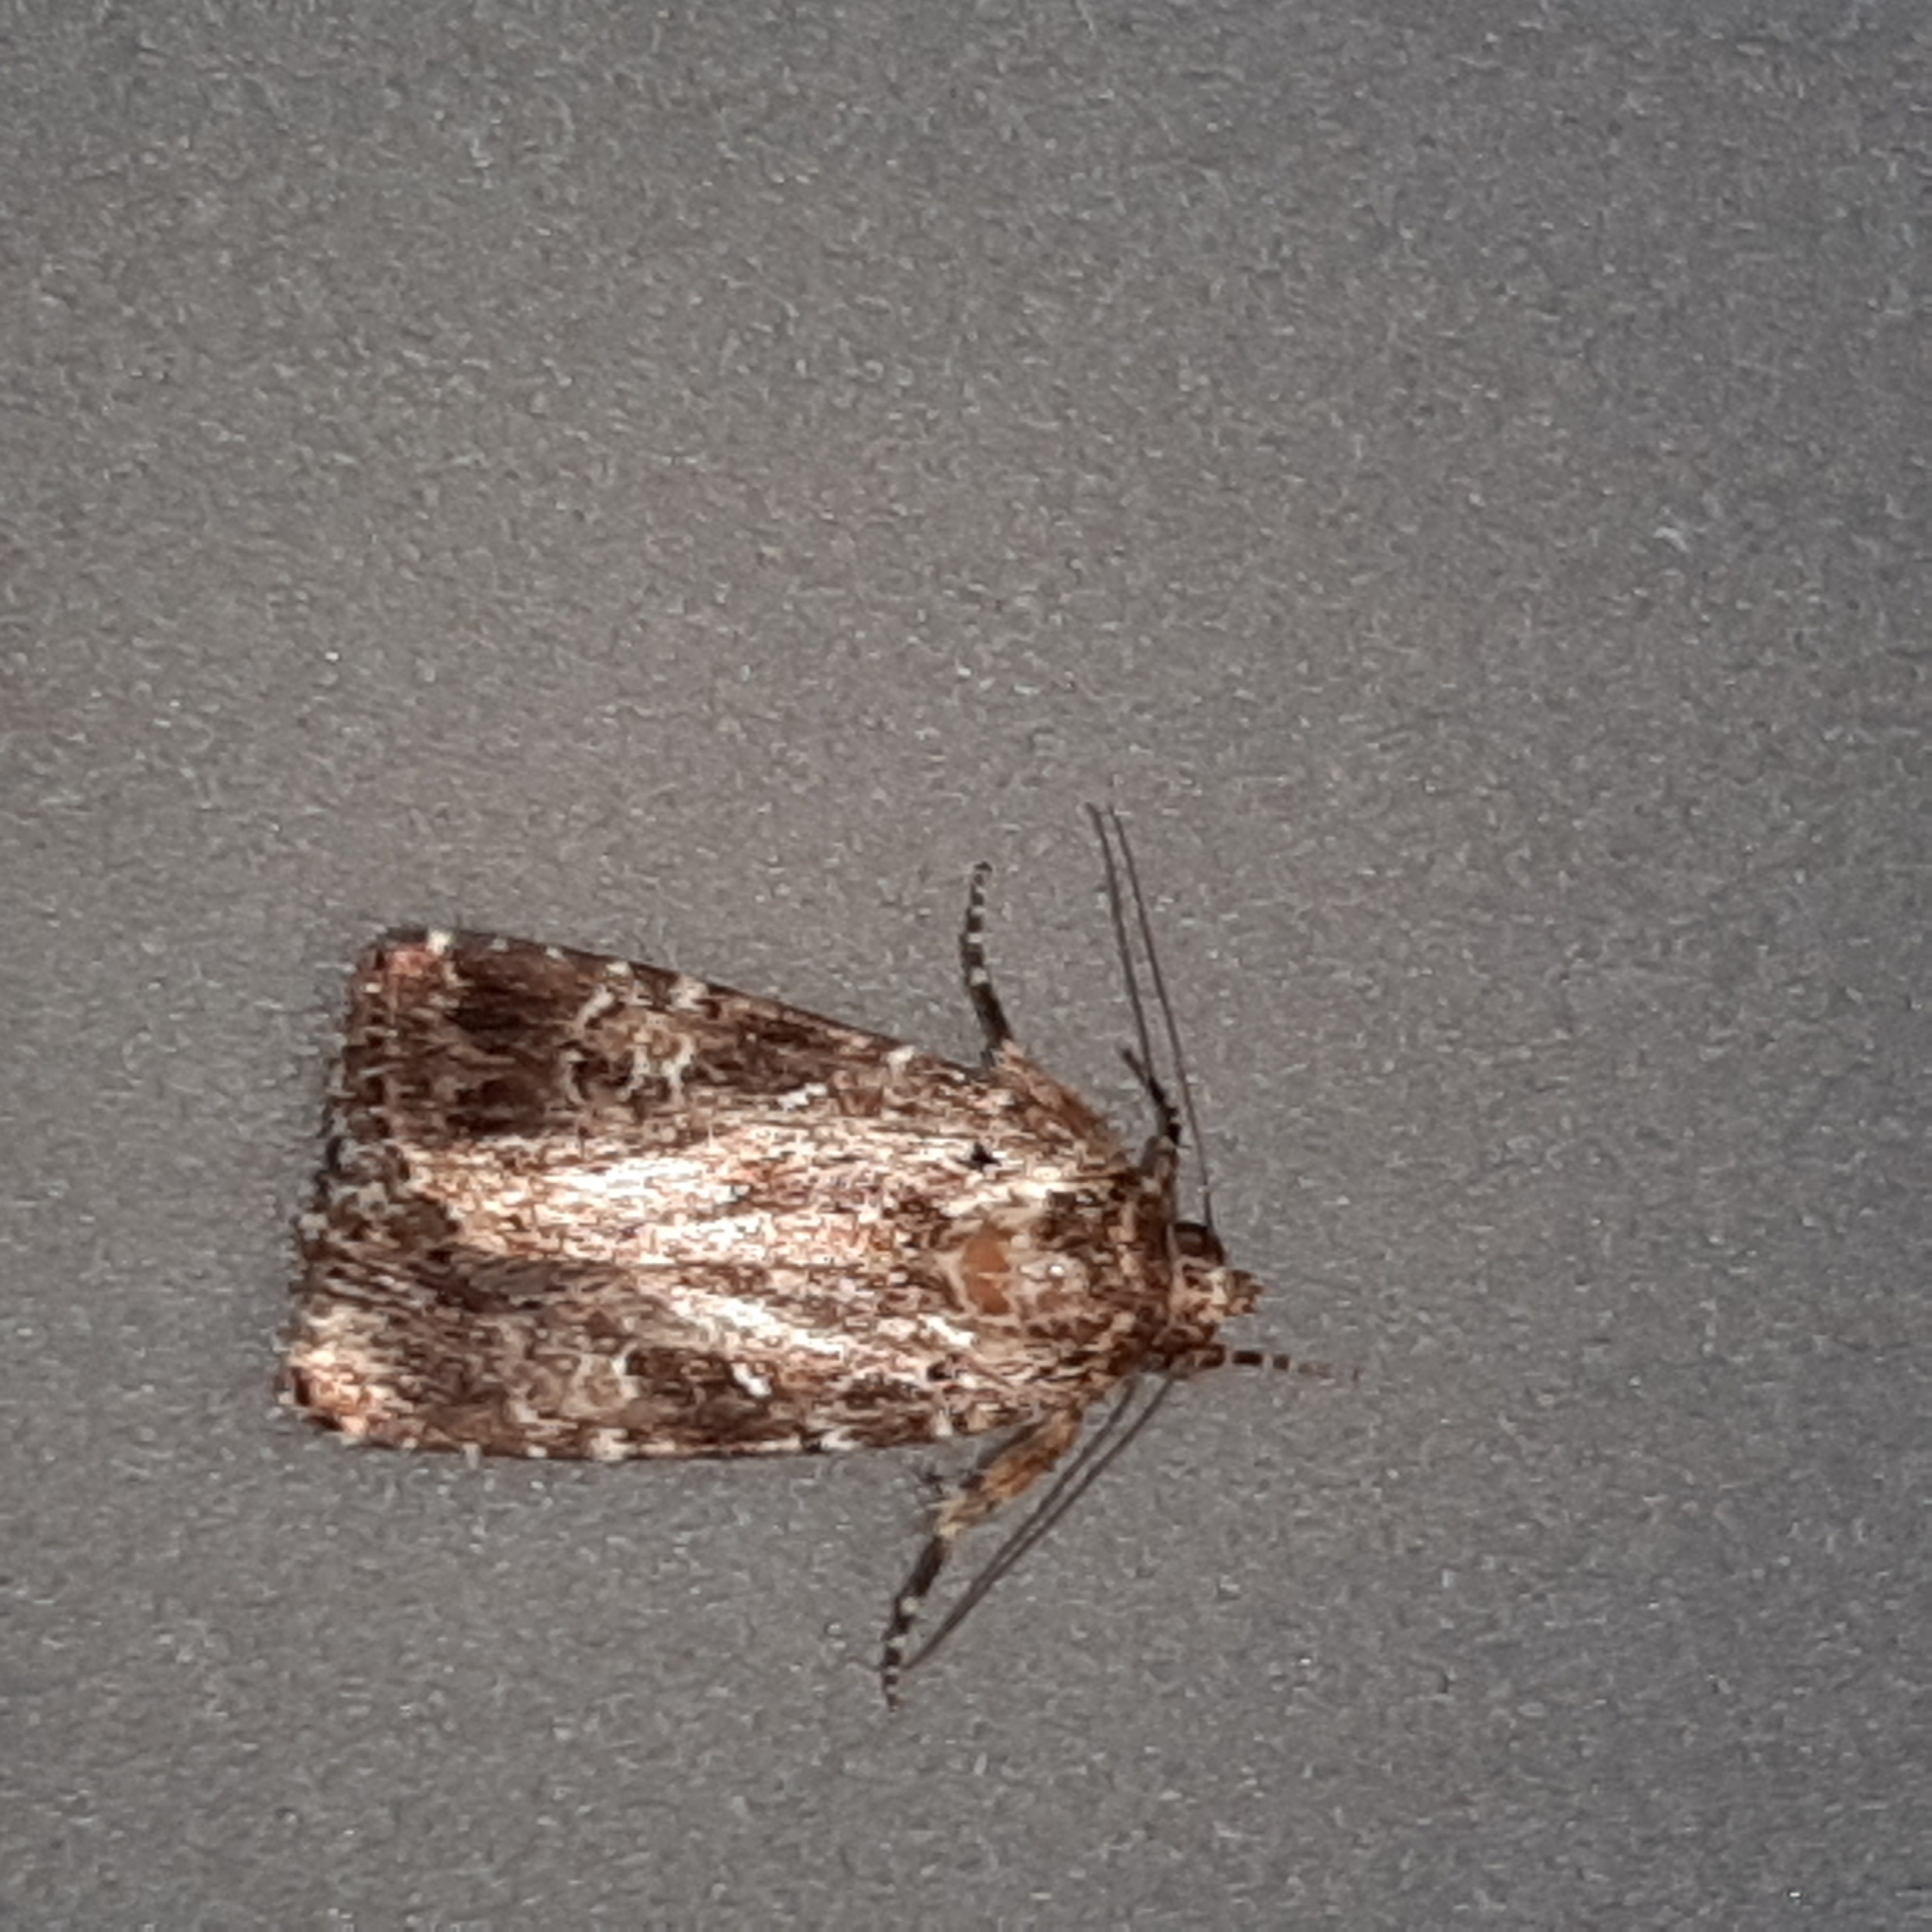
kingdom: Animalia
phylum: Arthropoda
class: Insecta
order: Lepidoptera
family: Erebidae
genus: Aristaria
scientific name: Aristaria theroalis
